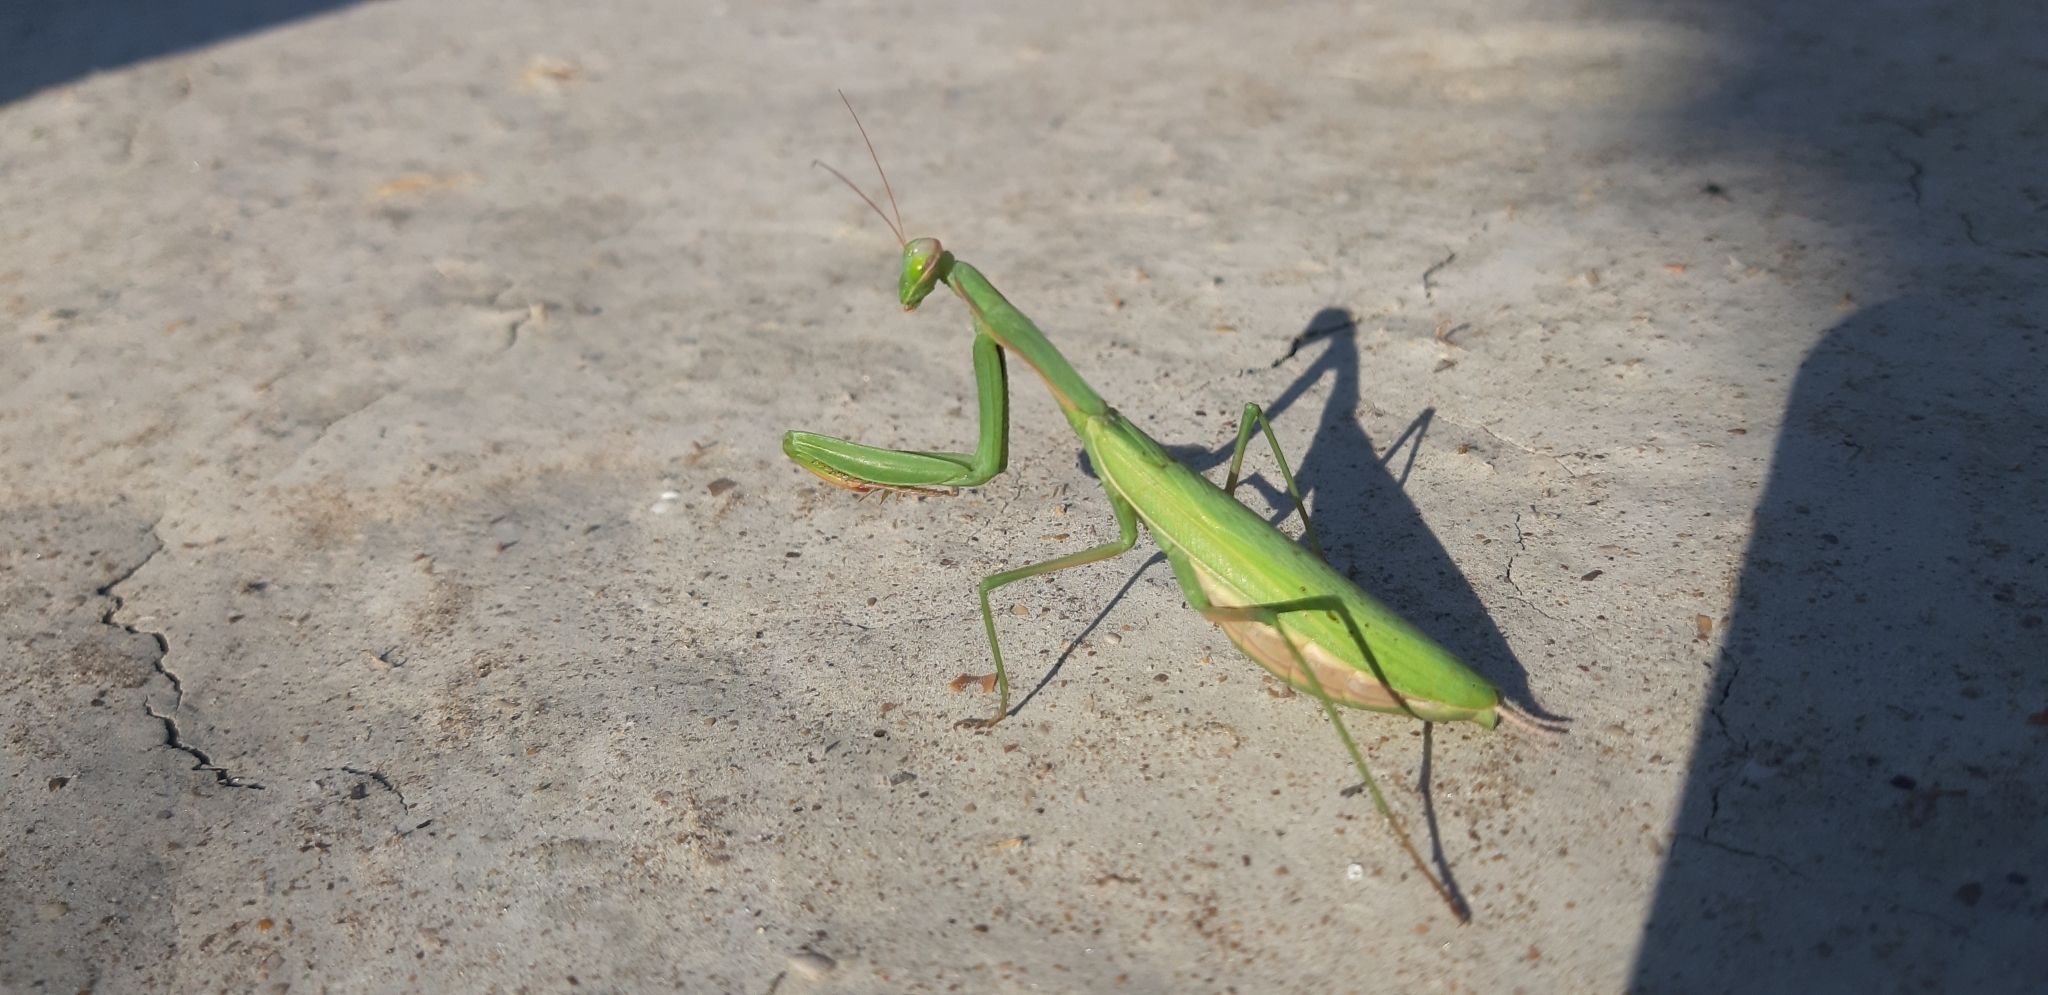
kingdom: Animalia
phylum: Arthropoda
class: Insecta
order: Mantodea
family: Mantidae
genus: Mantis
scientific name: Mantis religiosa
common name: Praying mantis
